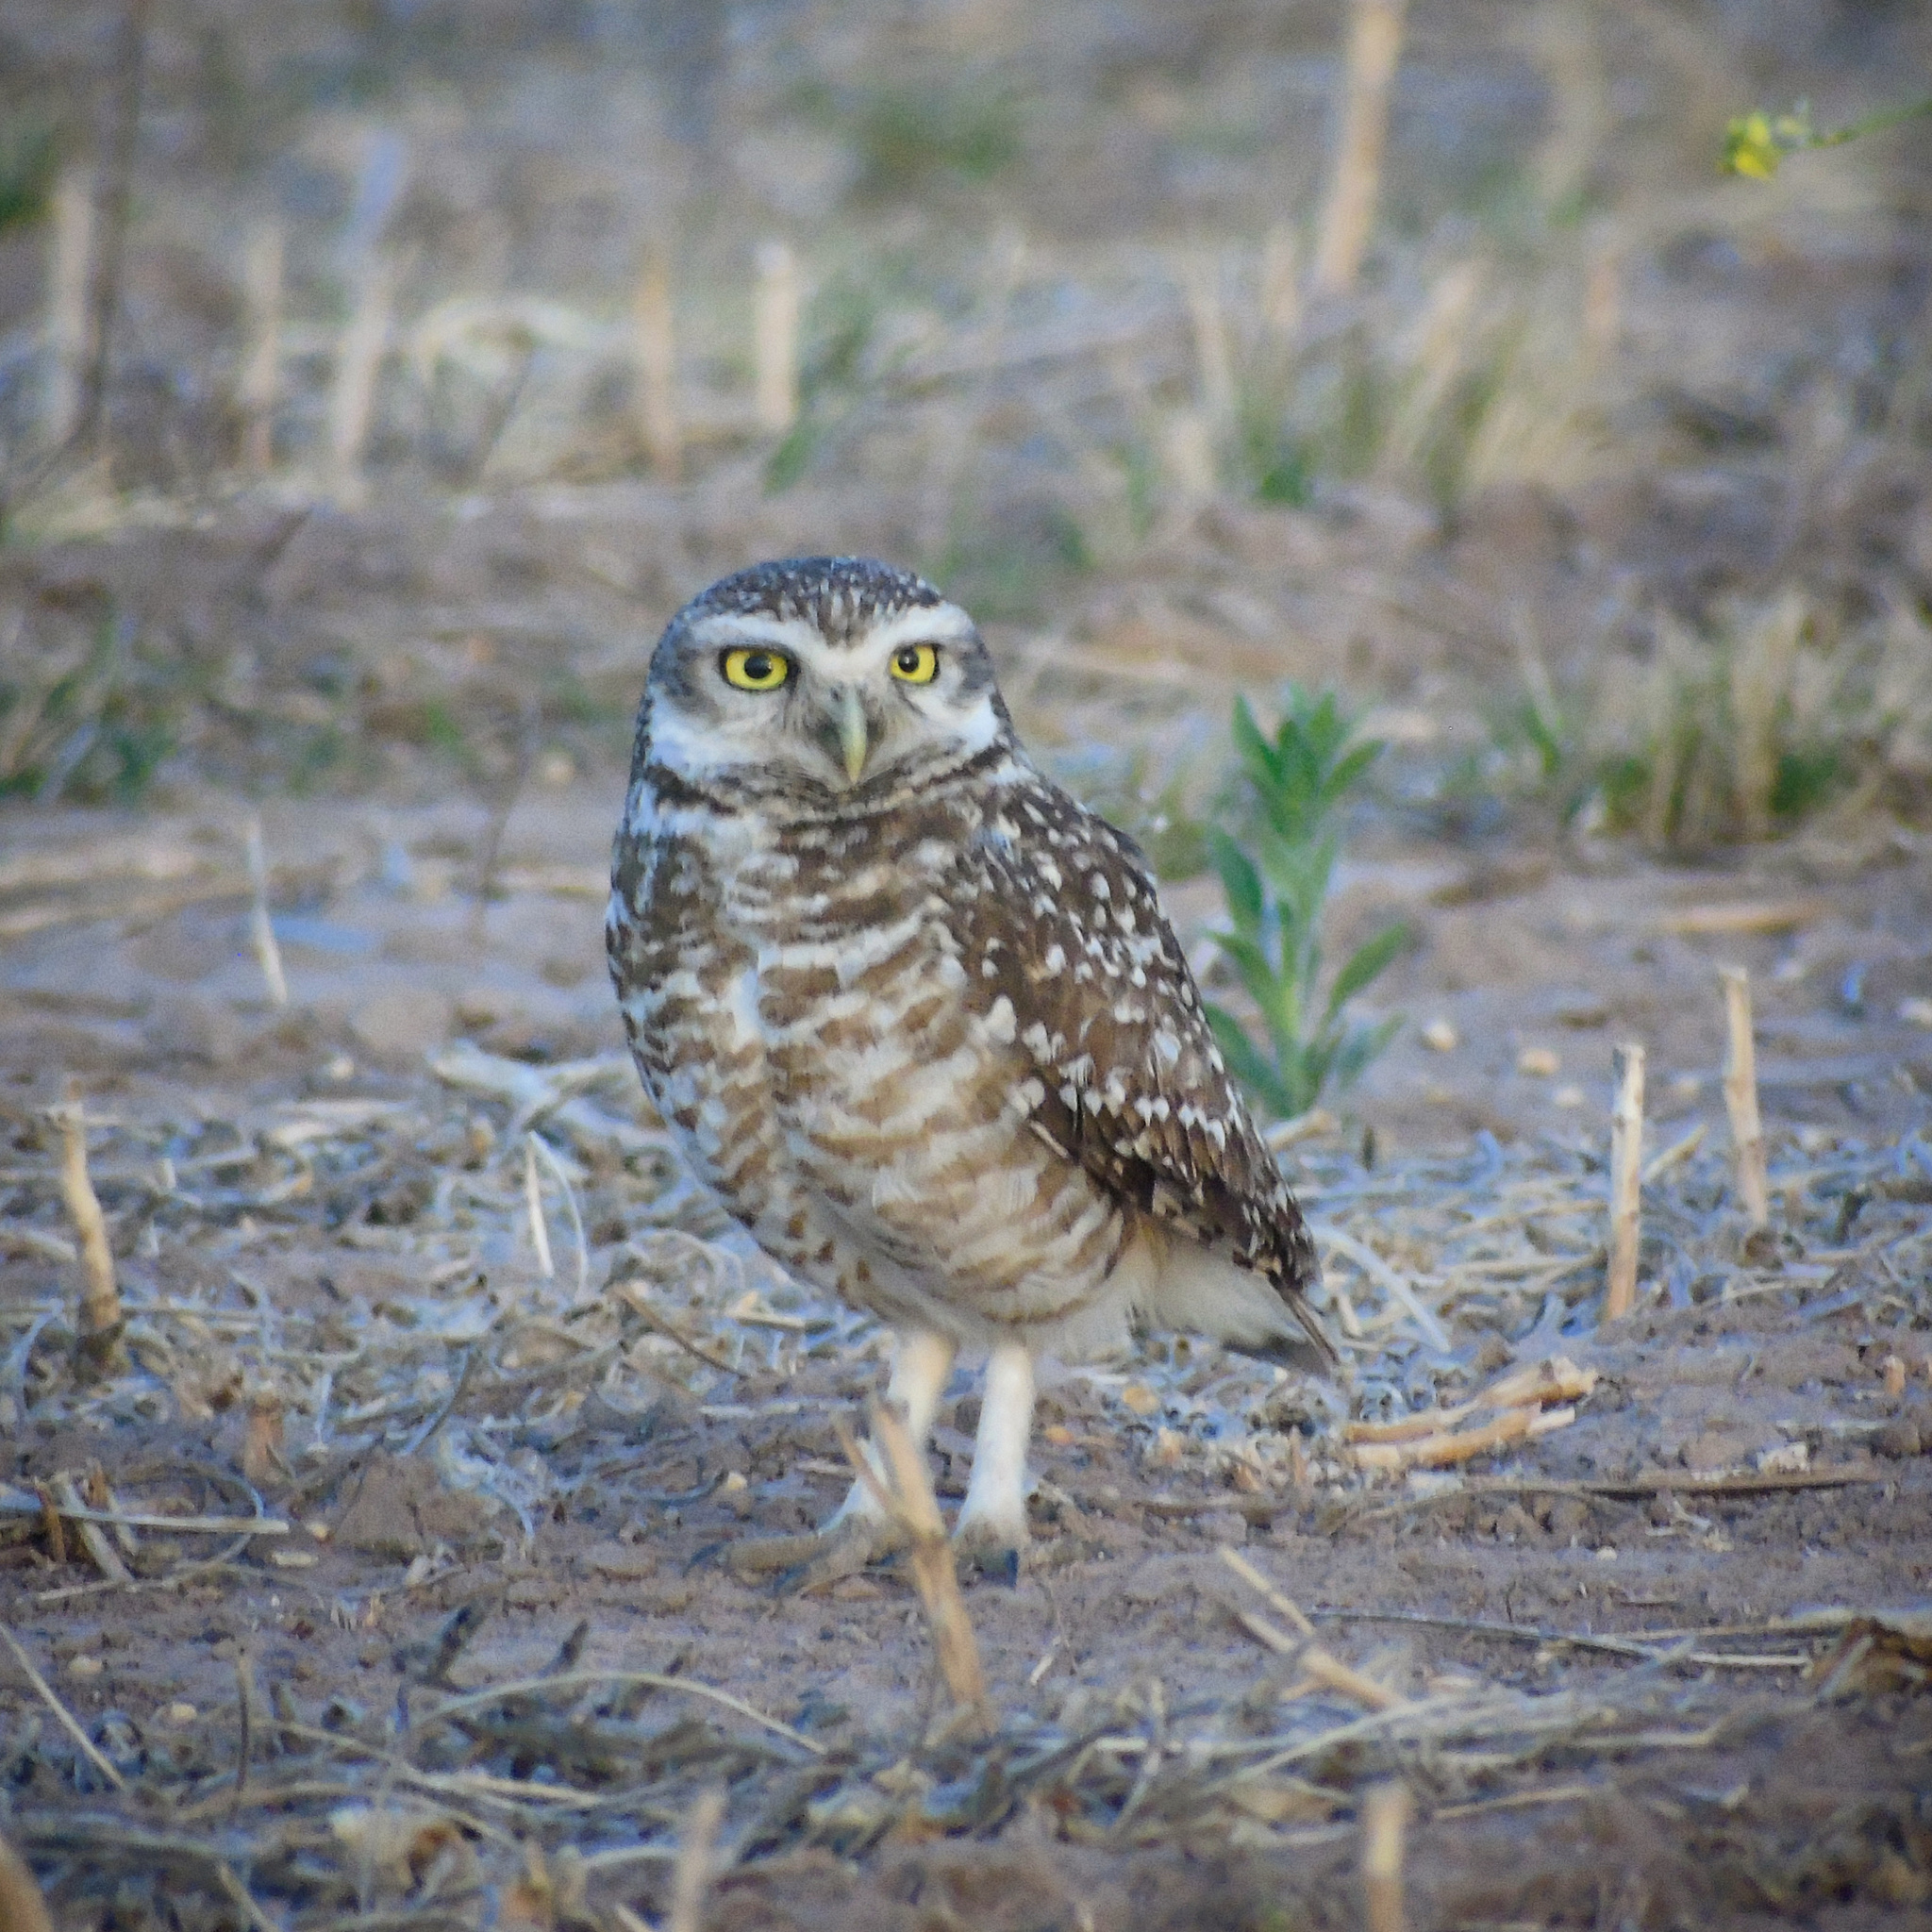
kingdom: Animalia
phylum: Chordata
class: Aves
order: Strigiformes
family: Strigidae
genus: Athene
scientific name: Athene cunicularia
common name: Burrowing owl
